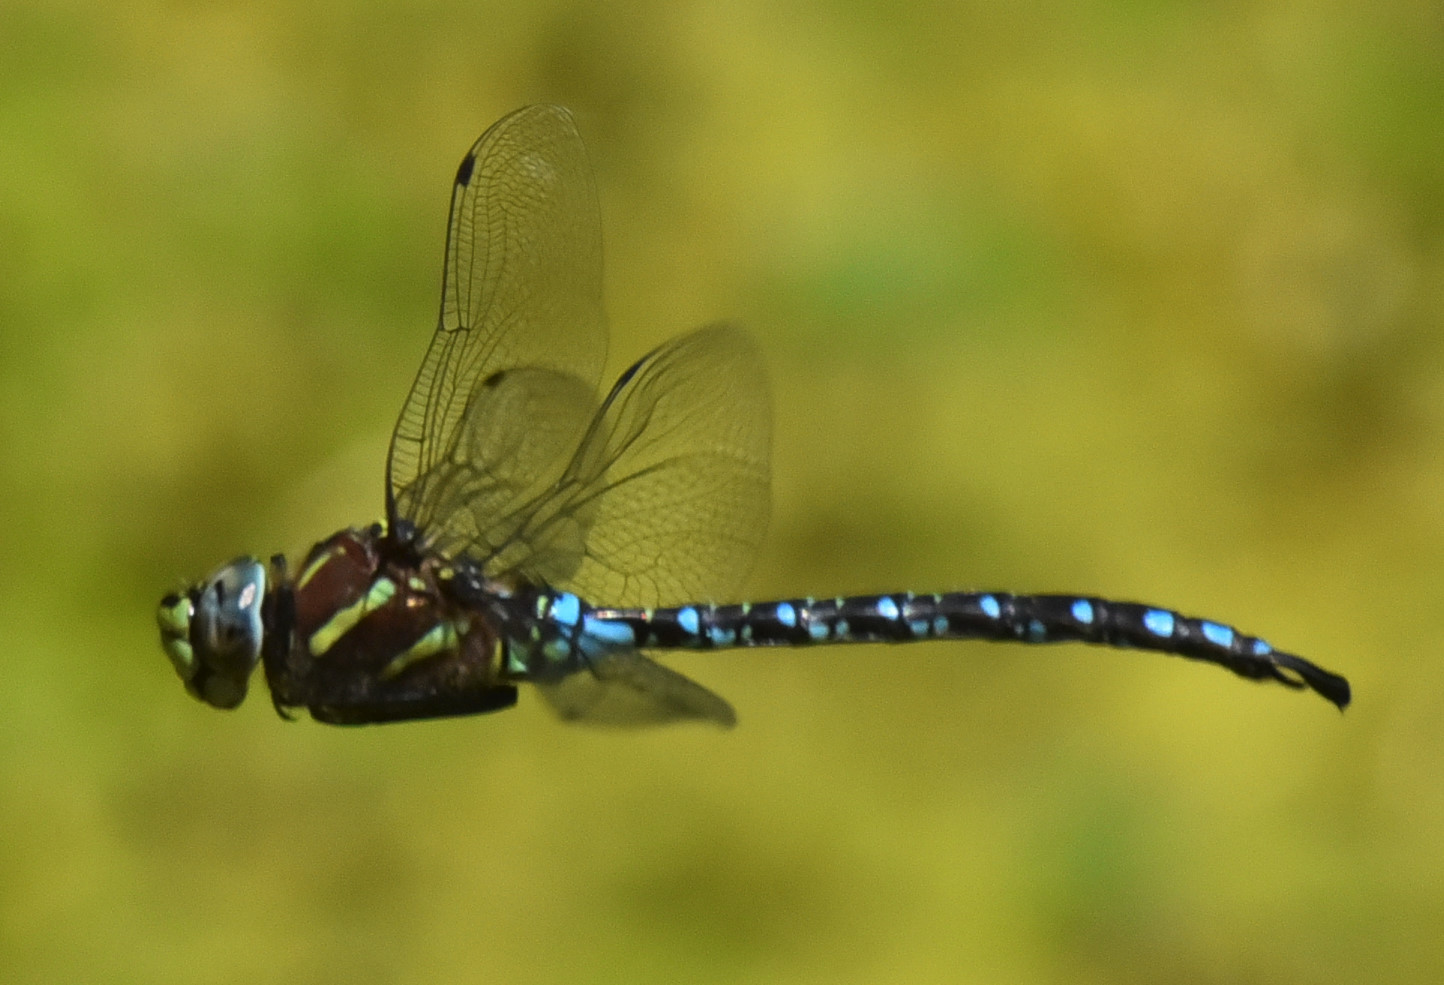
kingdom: Animalia
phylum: Arthropoda
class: Insecta
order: Odonata
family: Aeshnidae
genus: Aeshna
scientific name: Aeshna palmata
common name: Paddle-tailed darner
